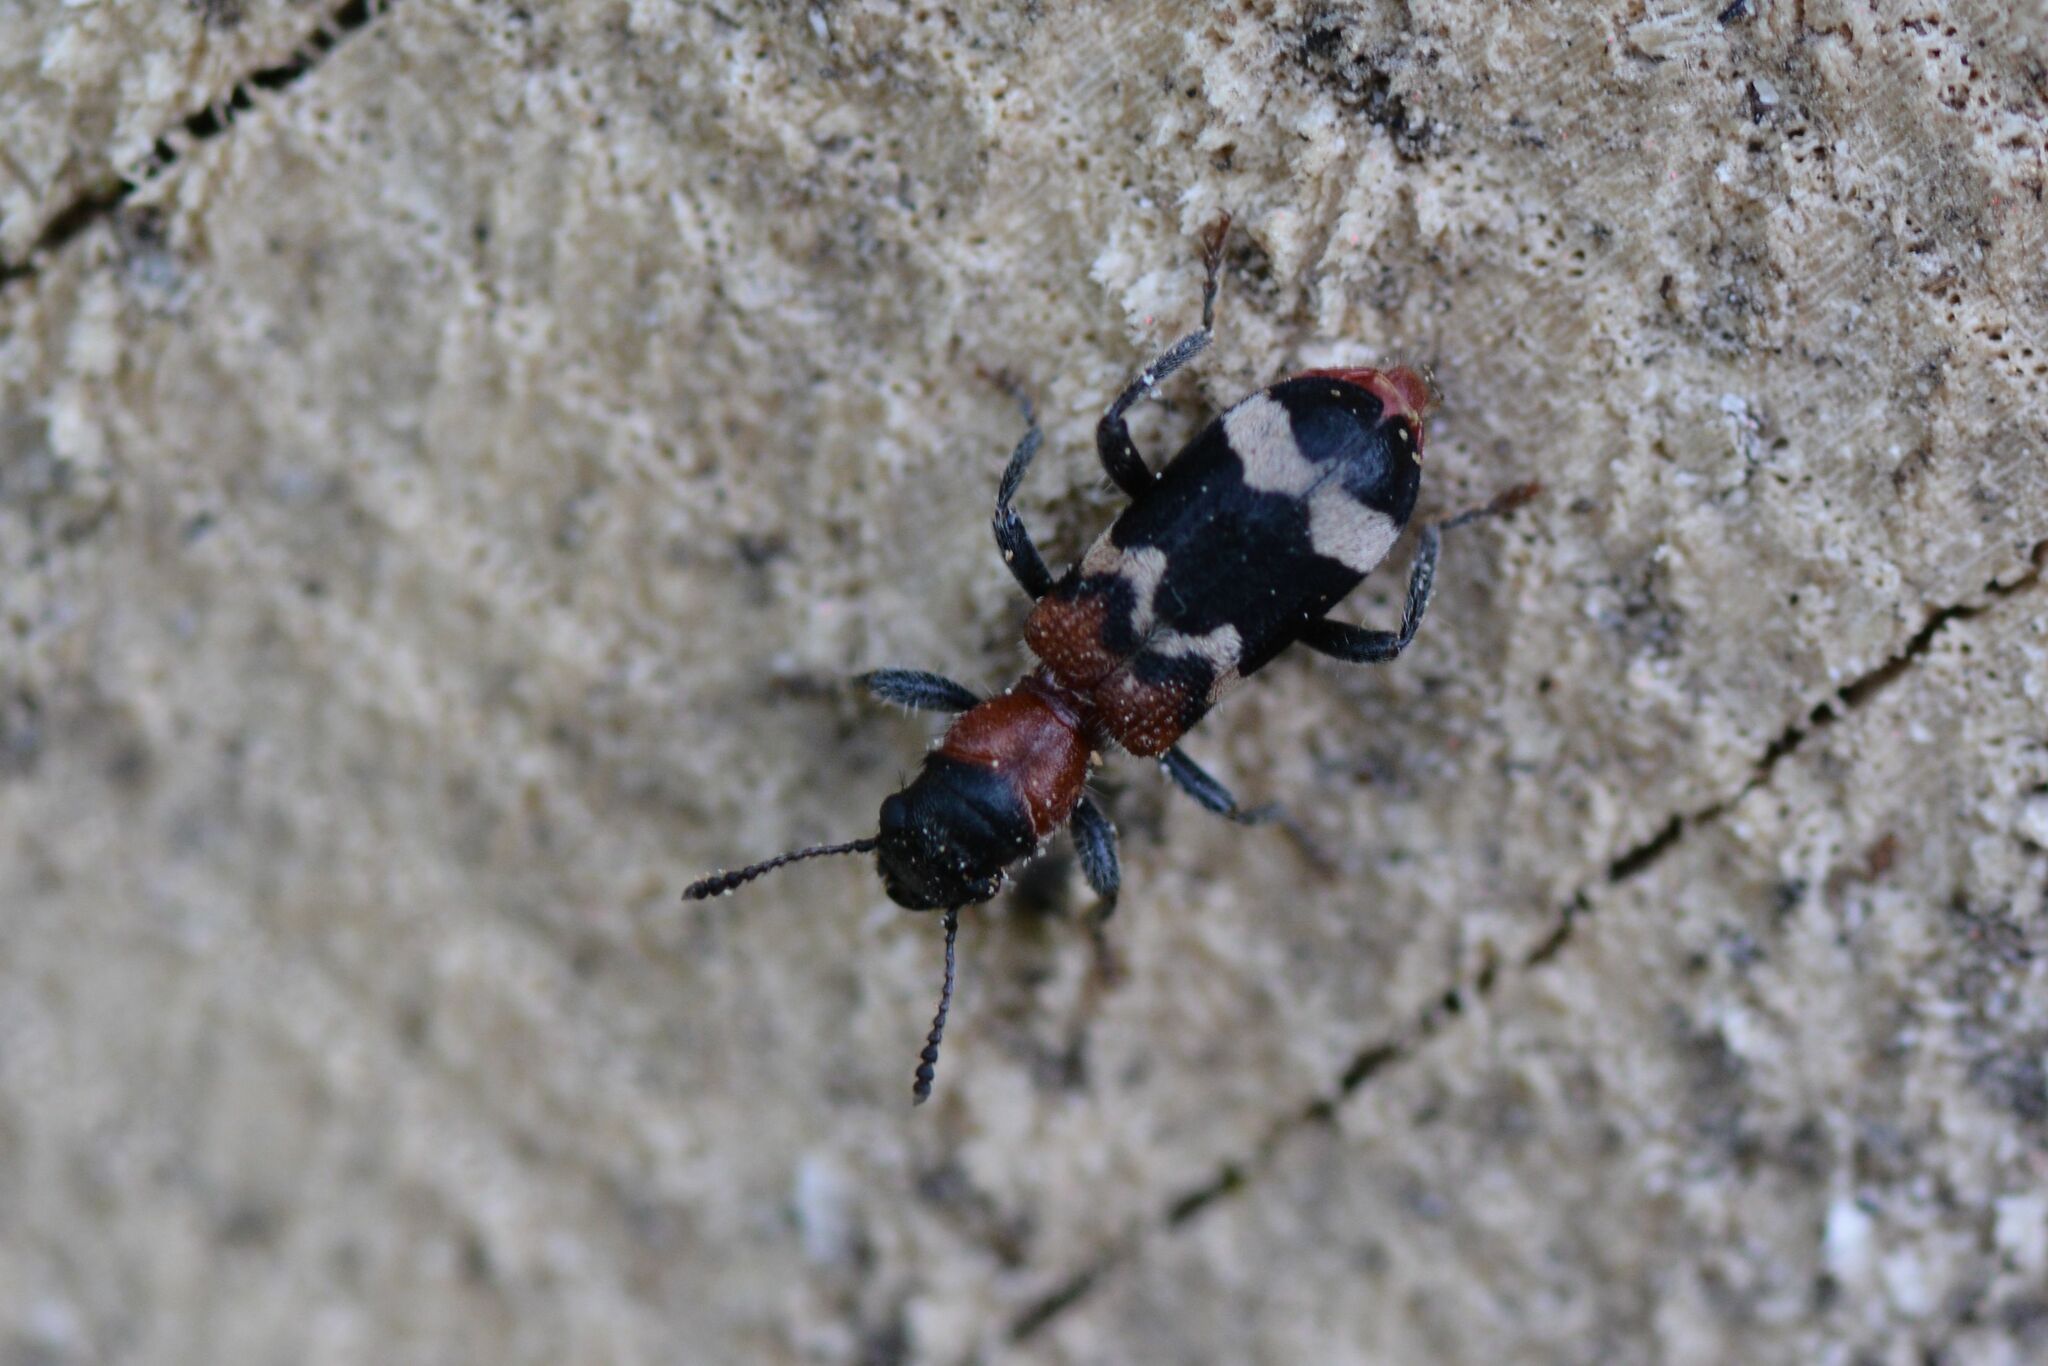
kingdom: Animalia
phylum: Arthropoda
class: Insecta
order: Coleoptera
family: Cleridae
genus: Thanasimus
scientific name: Thanasimus formicarius
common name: Ant beetle
